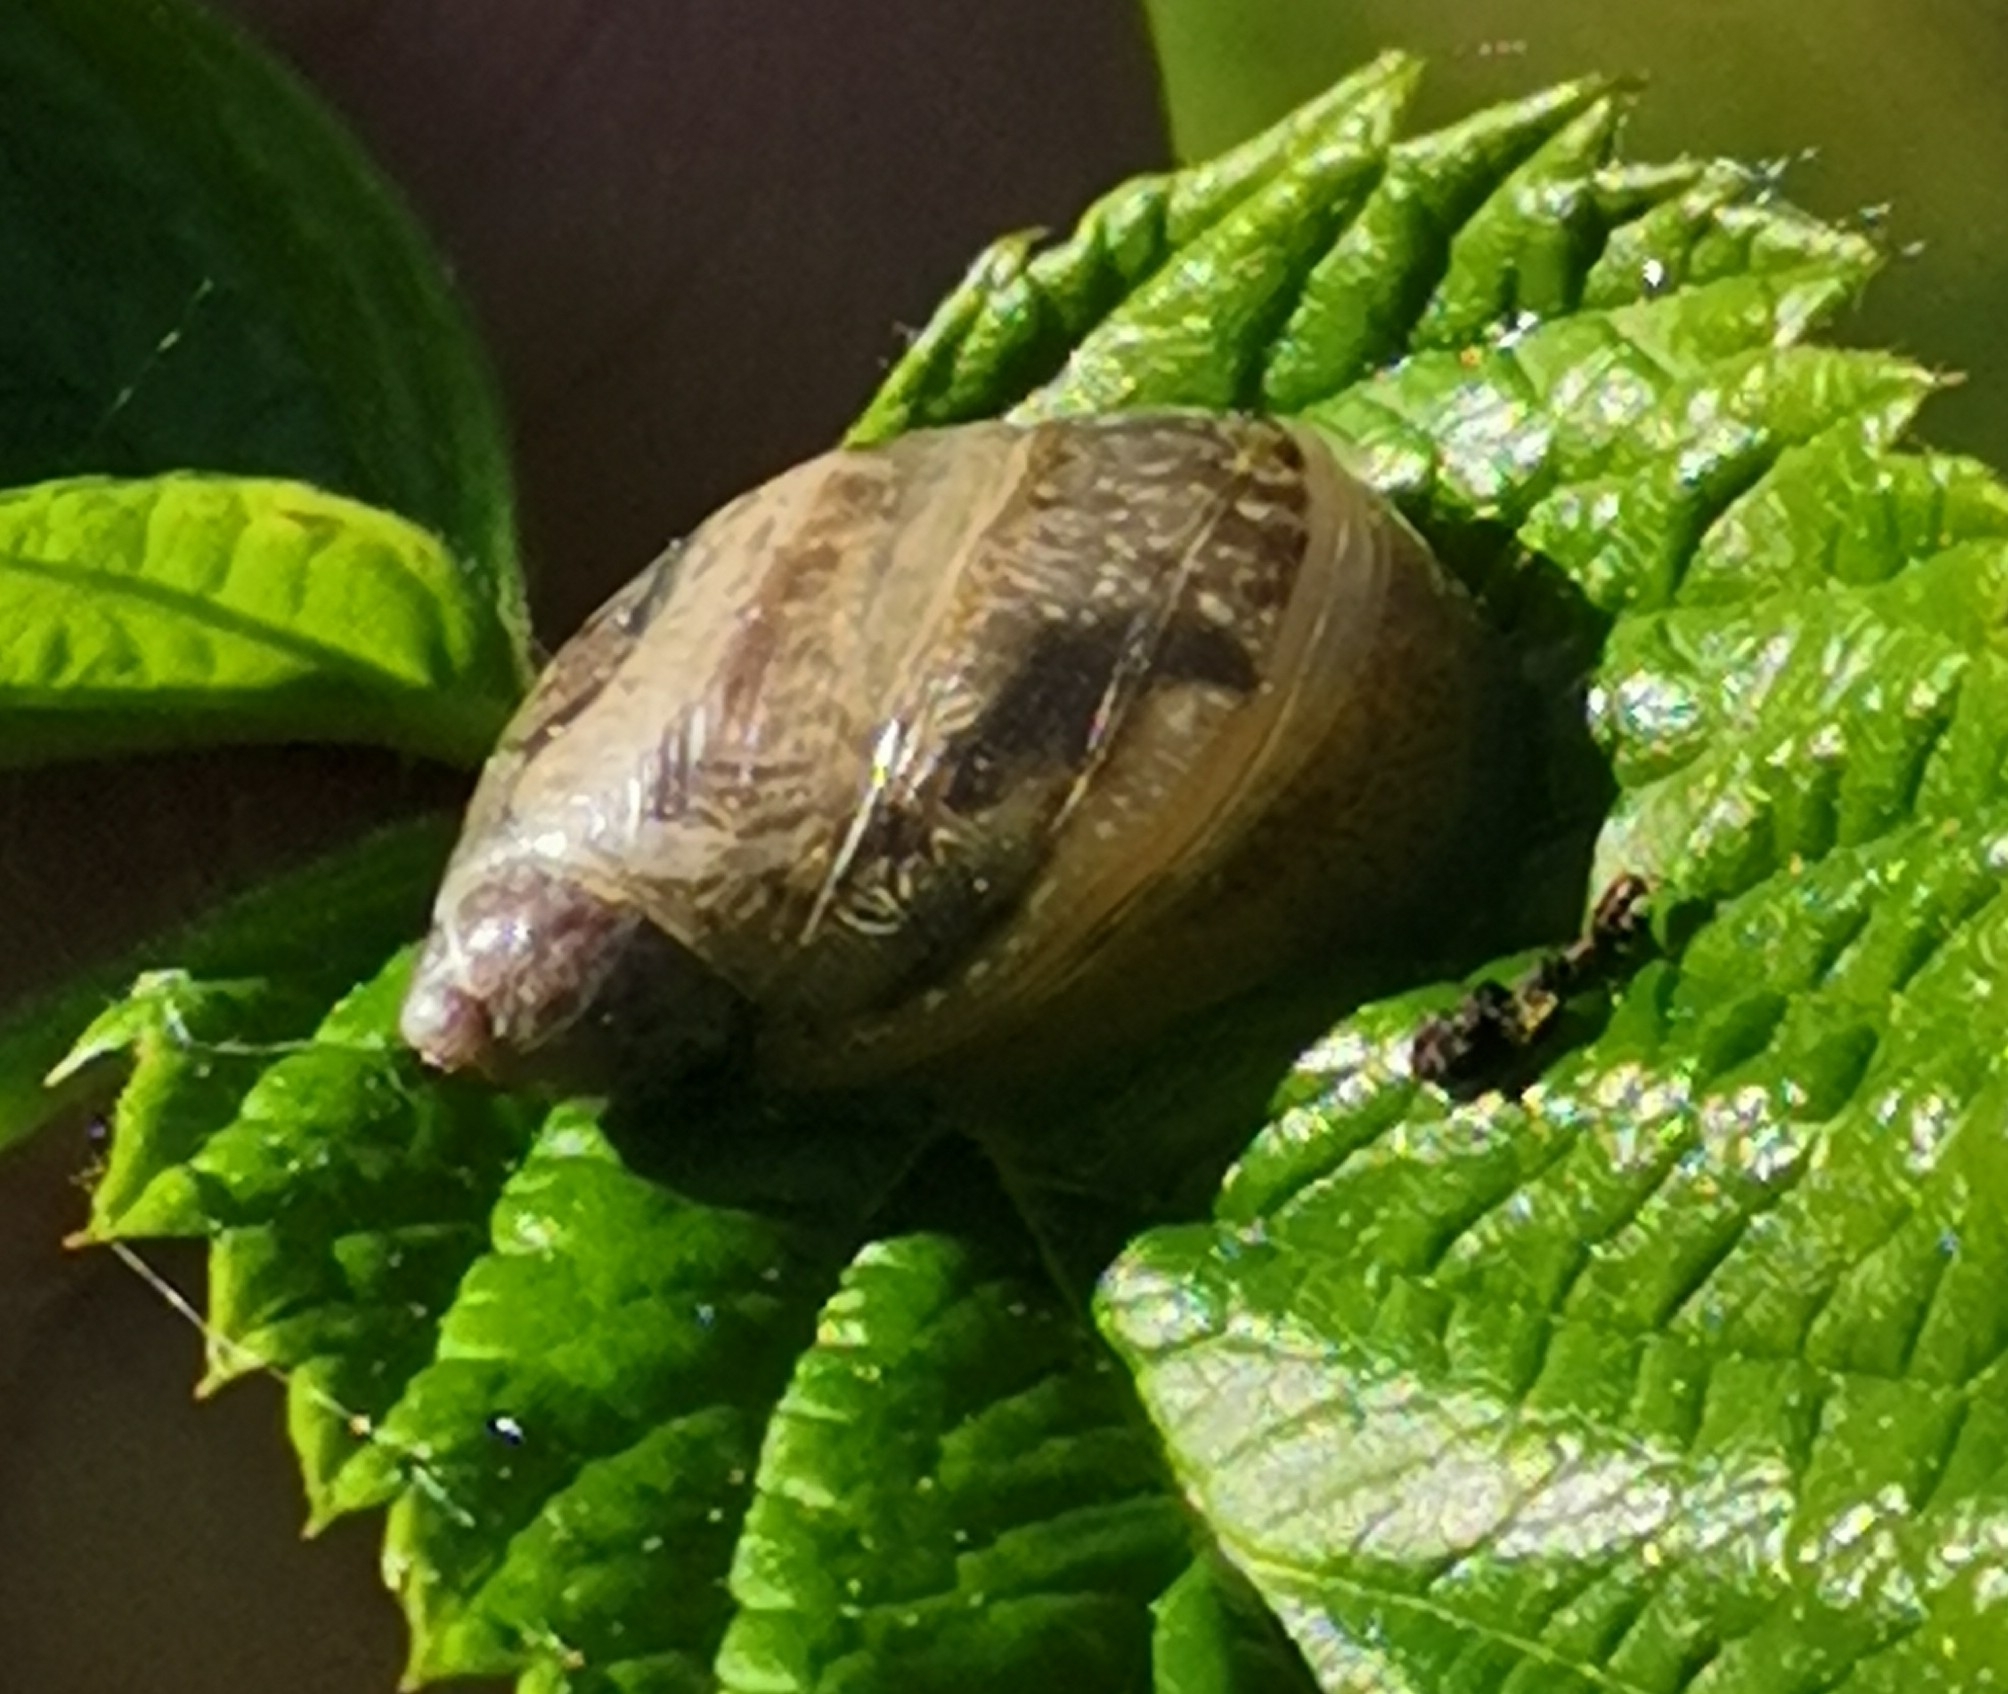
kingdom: Animalia
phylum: Mollusca
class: Gastropoda
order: Stylommatophora
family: Succineidae
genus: Succinea
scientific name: Succinea putris
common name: European ambersnail
